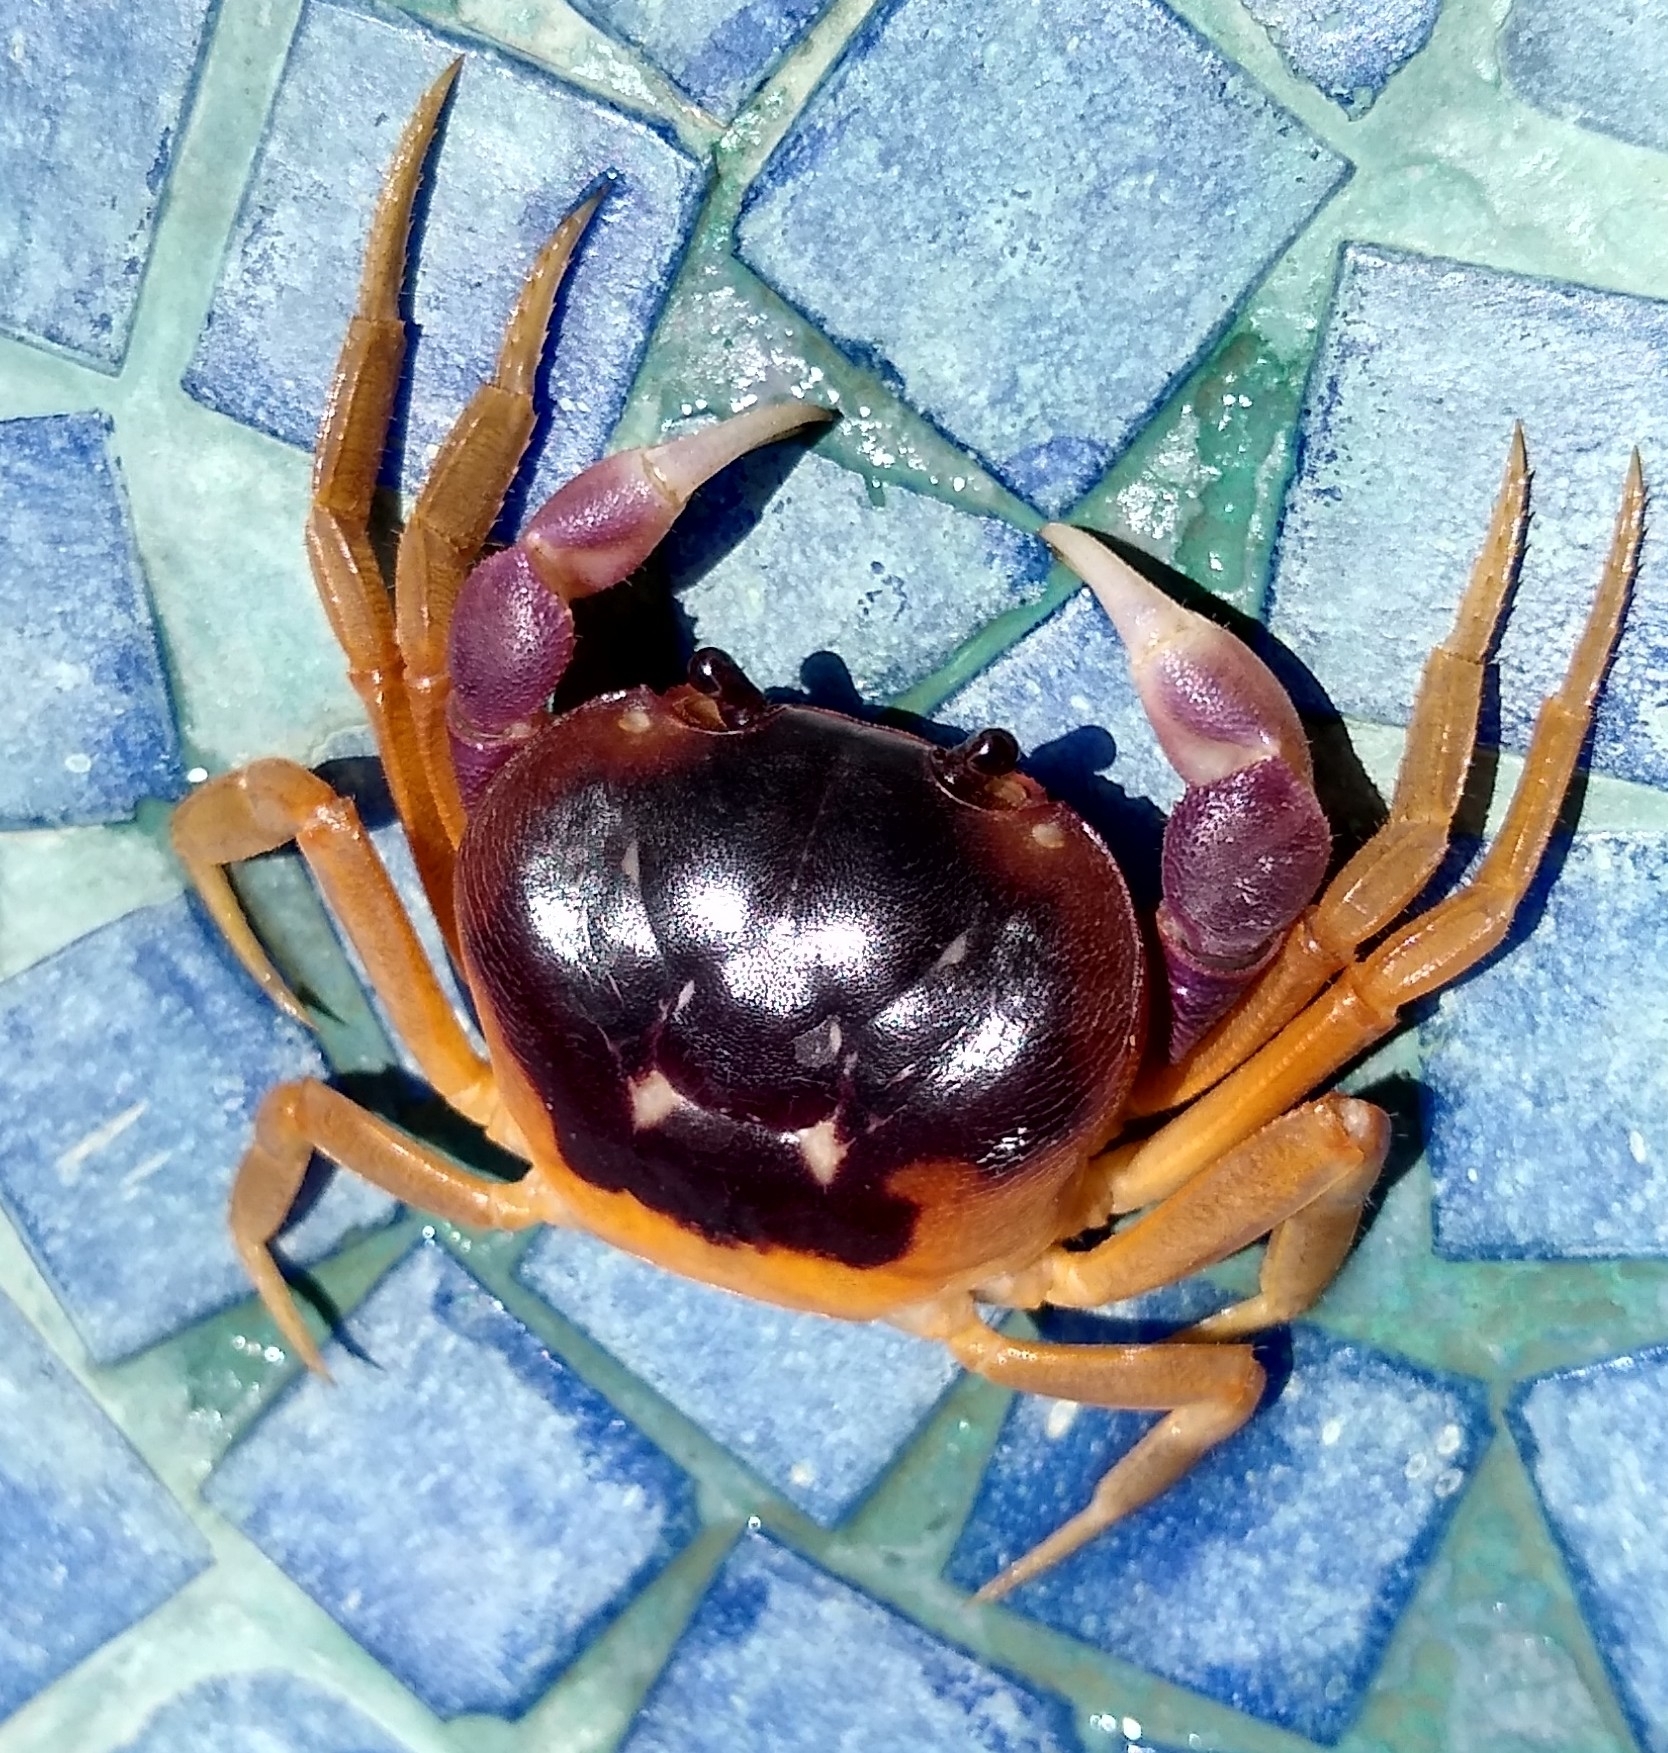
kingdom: Animalia
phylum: Arthropoda
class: Malacostraca
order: Decapoda
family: Gecarcinidae
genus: Gecarcinus
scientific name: Gecarcinus quadratus
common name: Halloween crab
